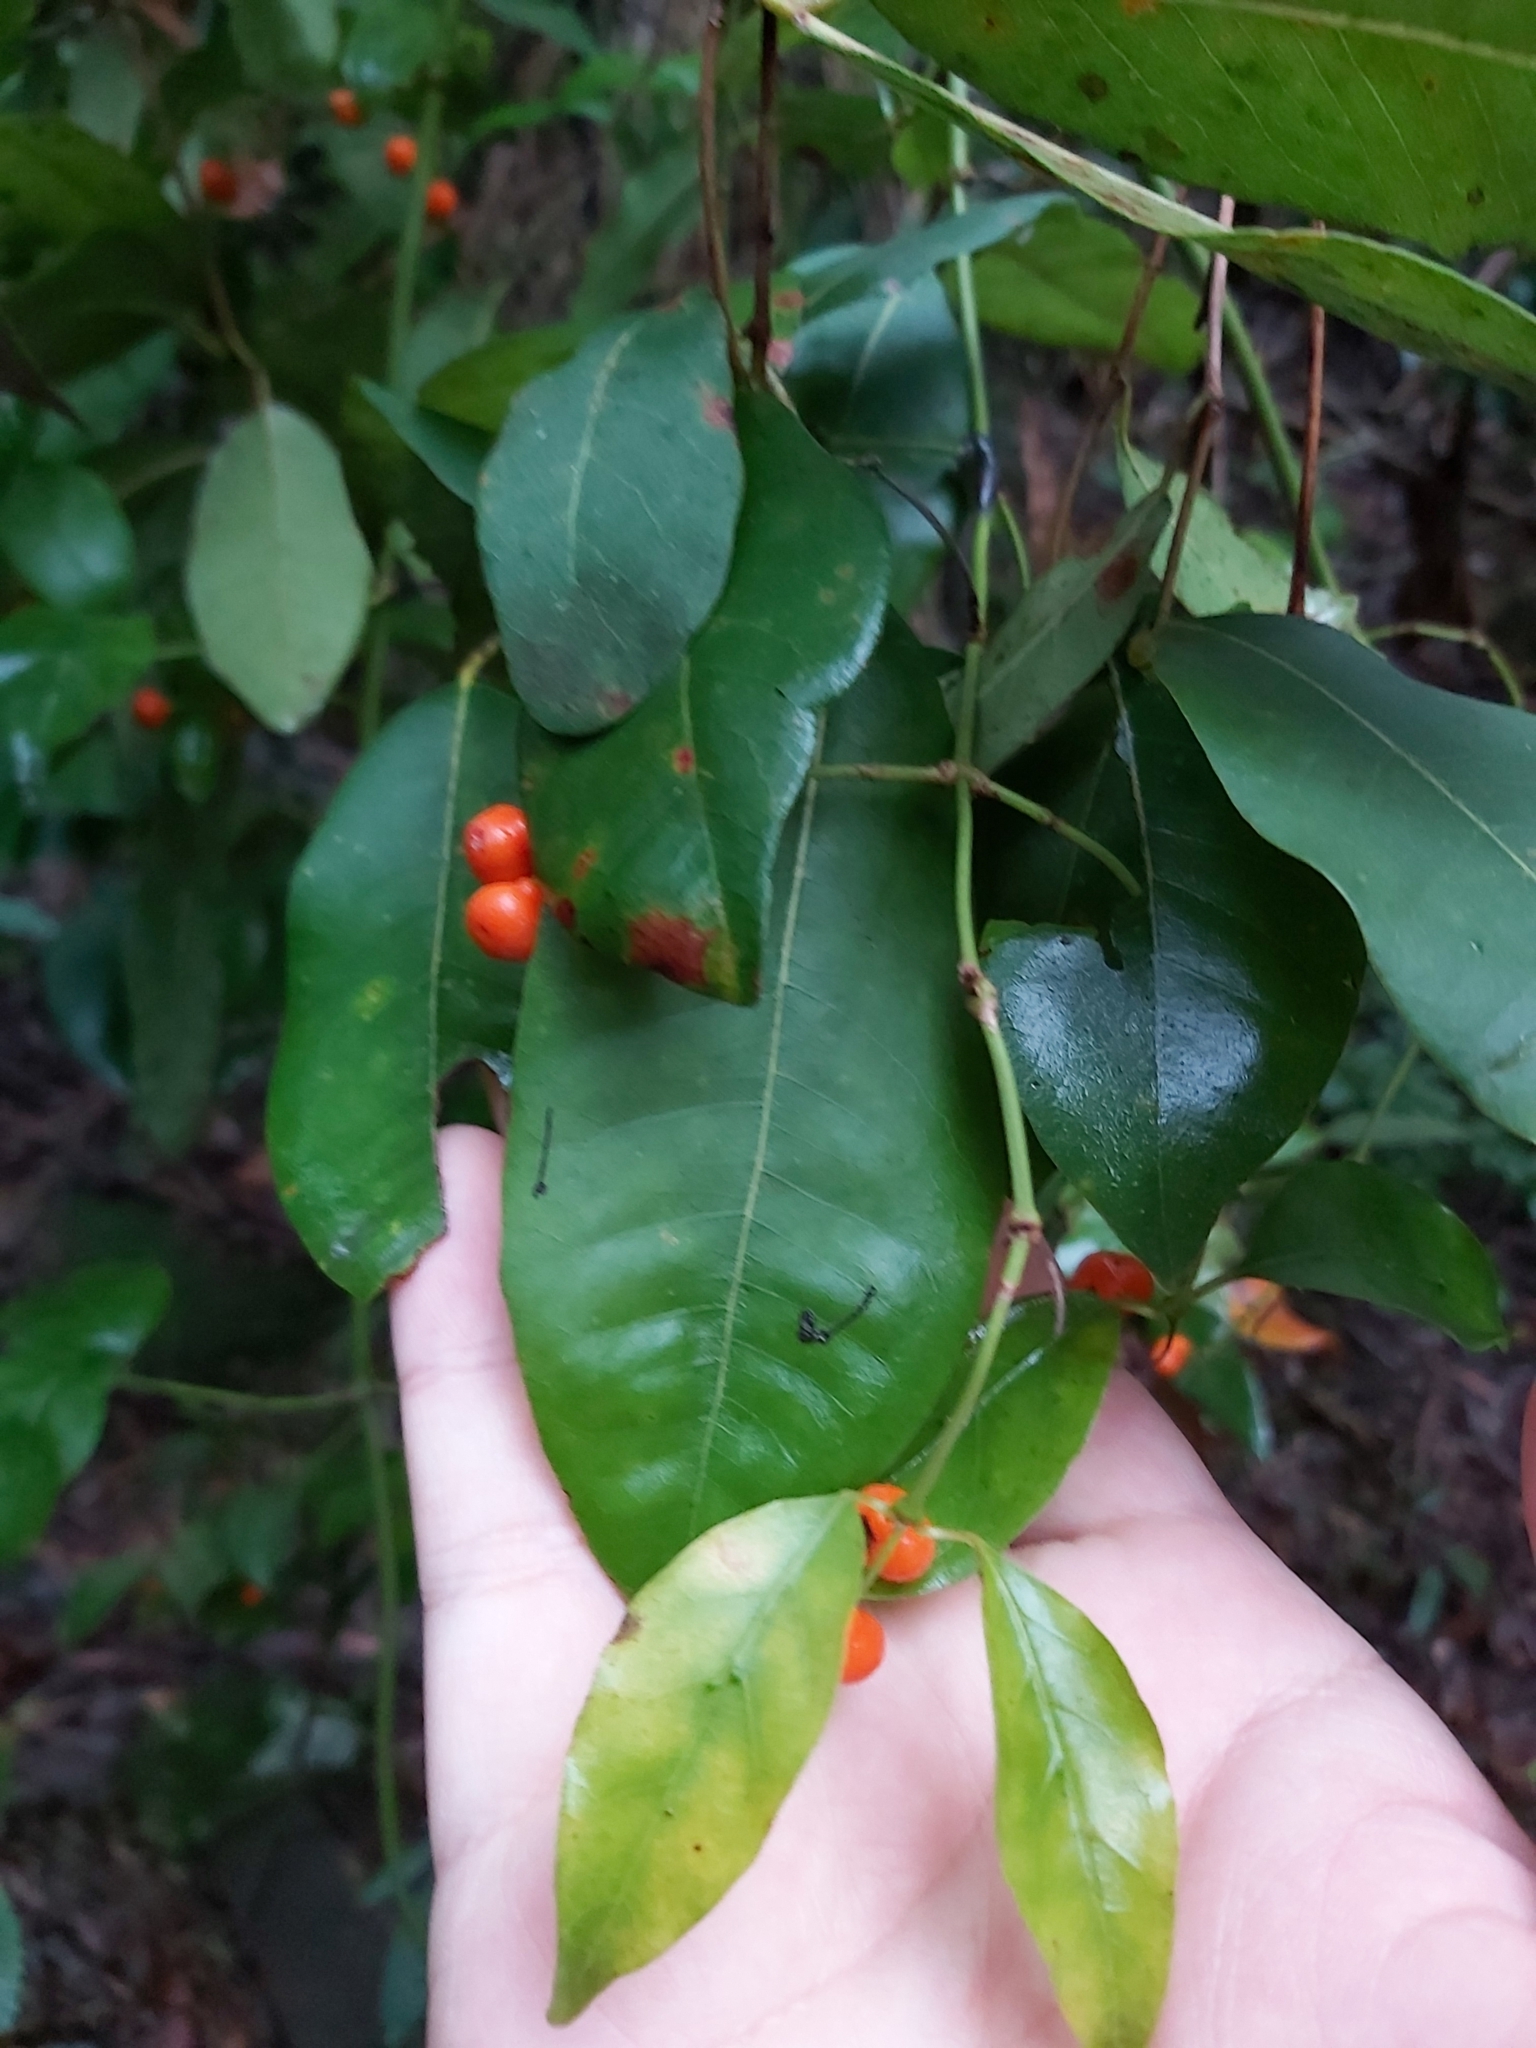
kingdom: Plantae
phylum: Tracheophyta
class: Magnoliopsida
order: Gentianales
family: Rubiaceae
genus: Gynochthodes
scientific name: Gynochthodes jasminoides
